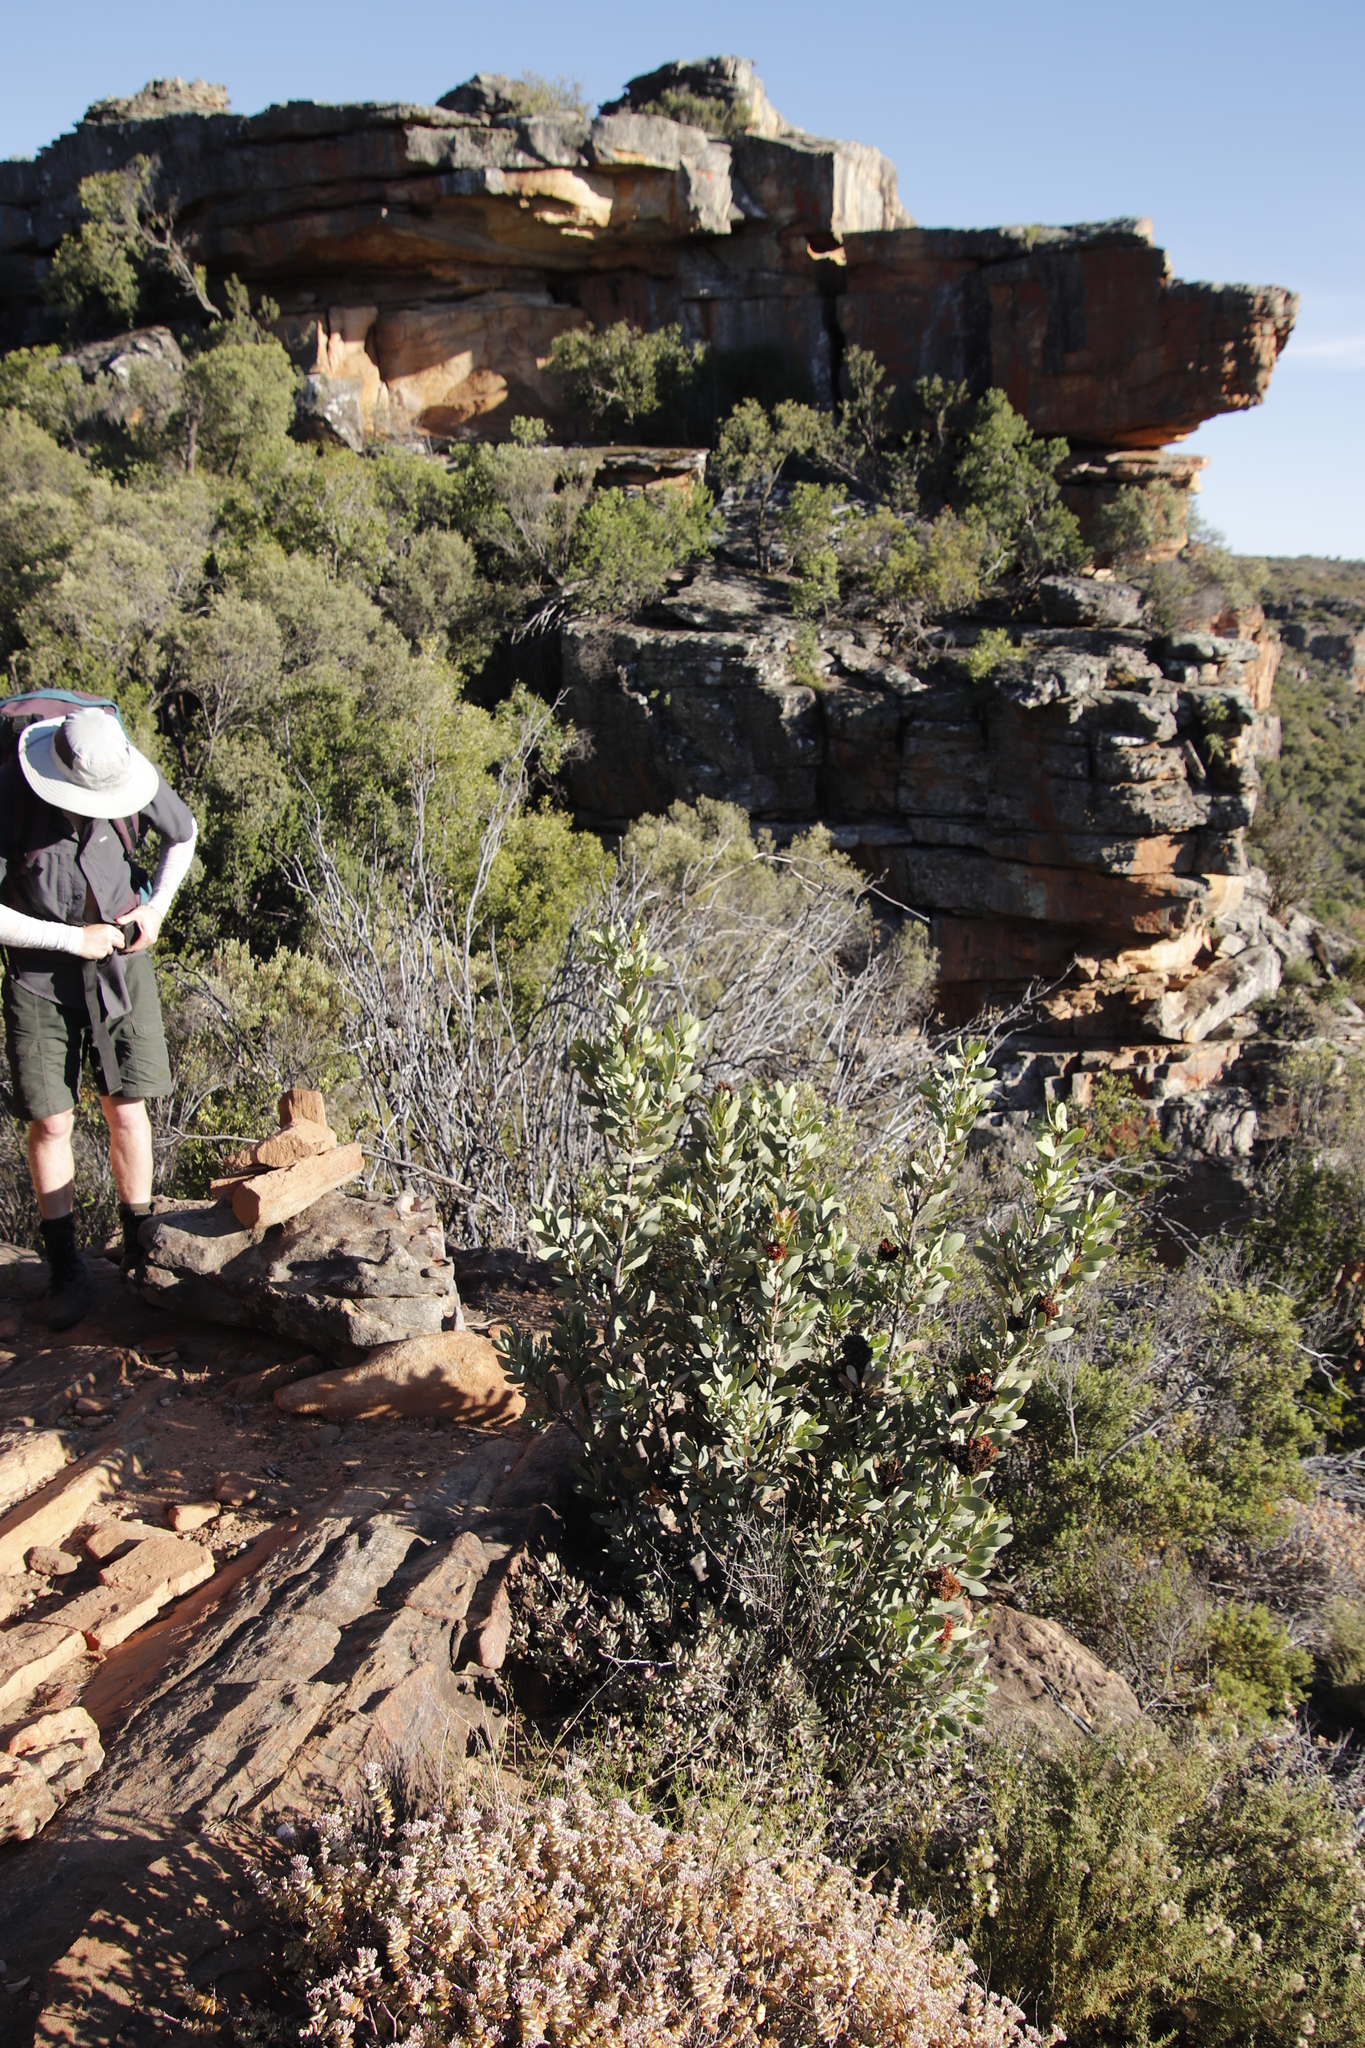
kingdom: Plantae
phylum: Tracheophyta
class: Magnoliopsida
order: Proteales
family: Proteaceae
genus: Protea
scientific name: Protea glabra
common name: Chestnut sugarbush
